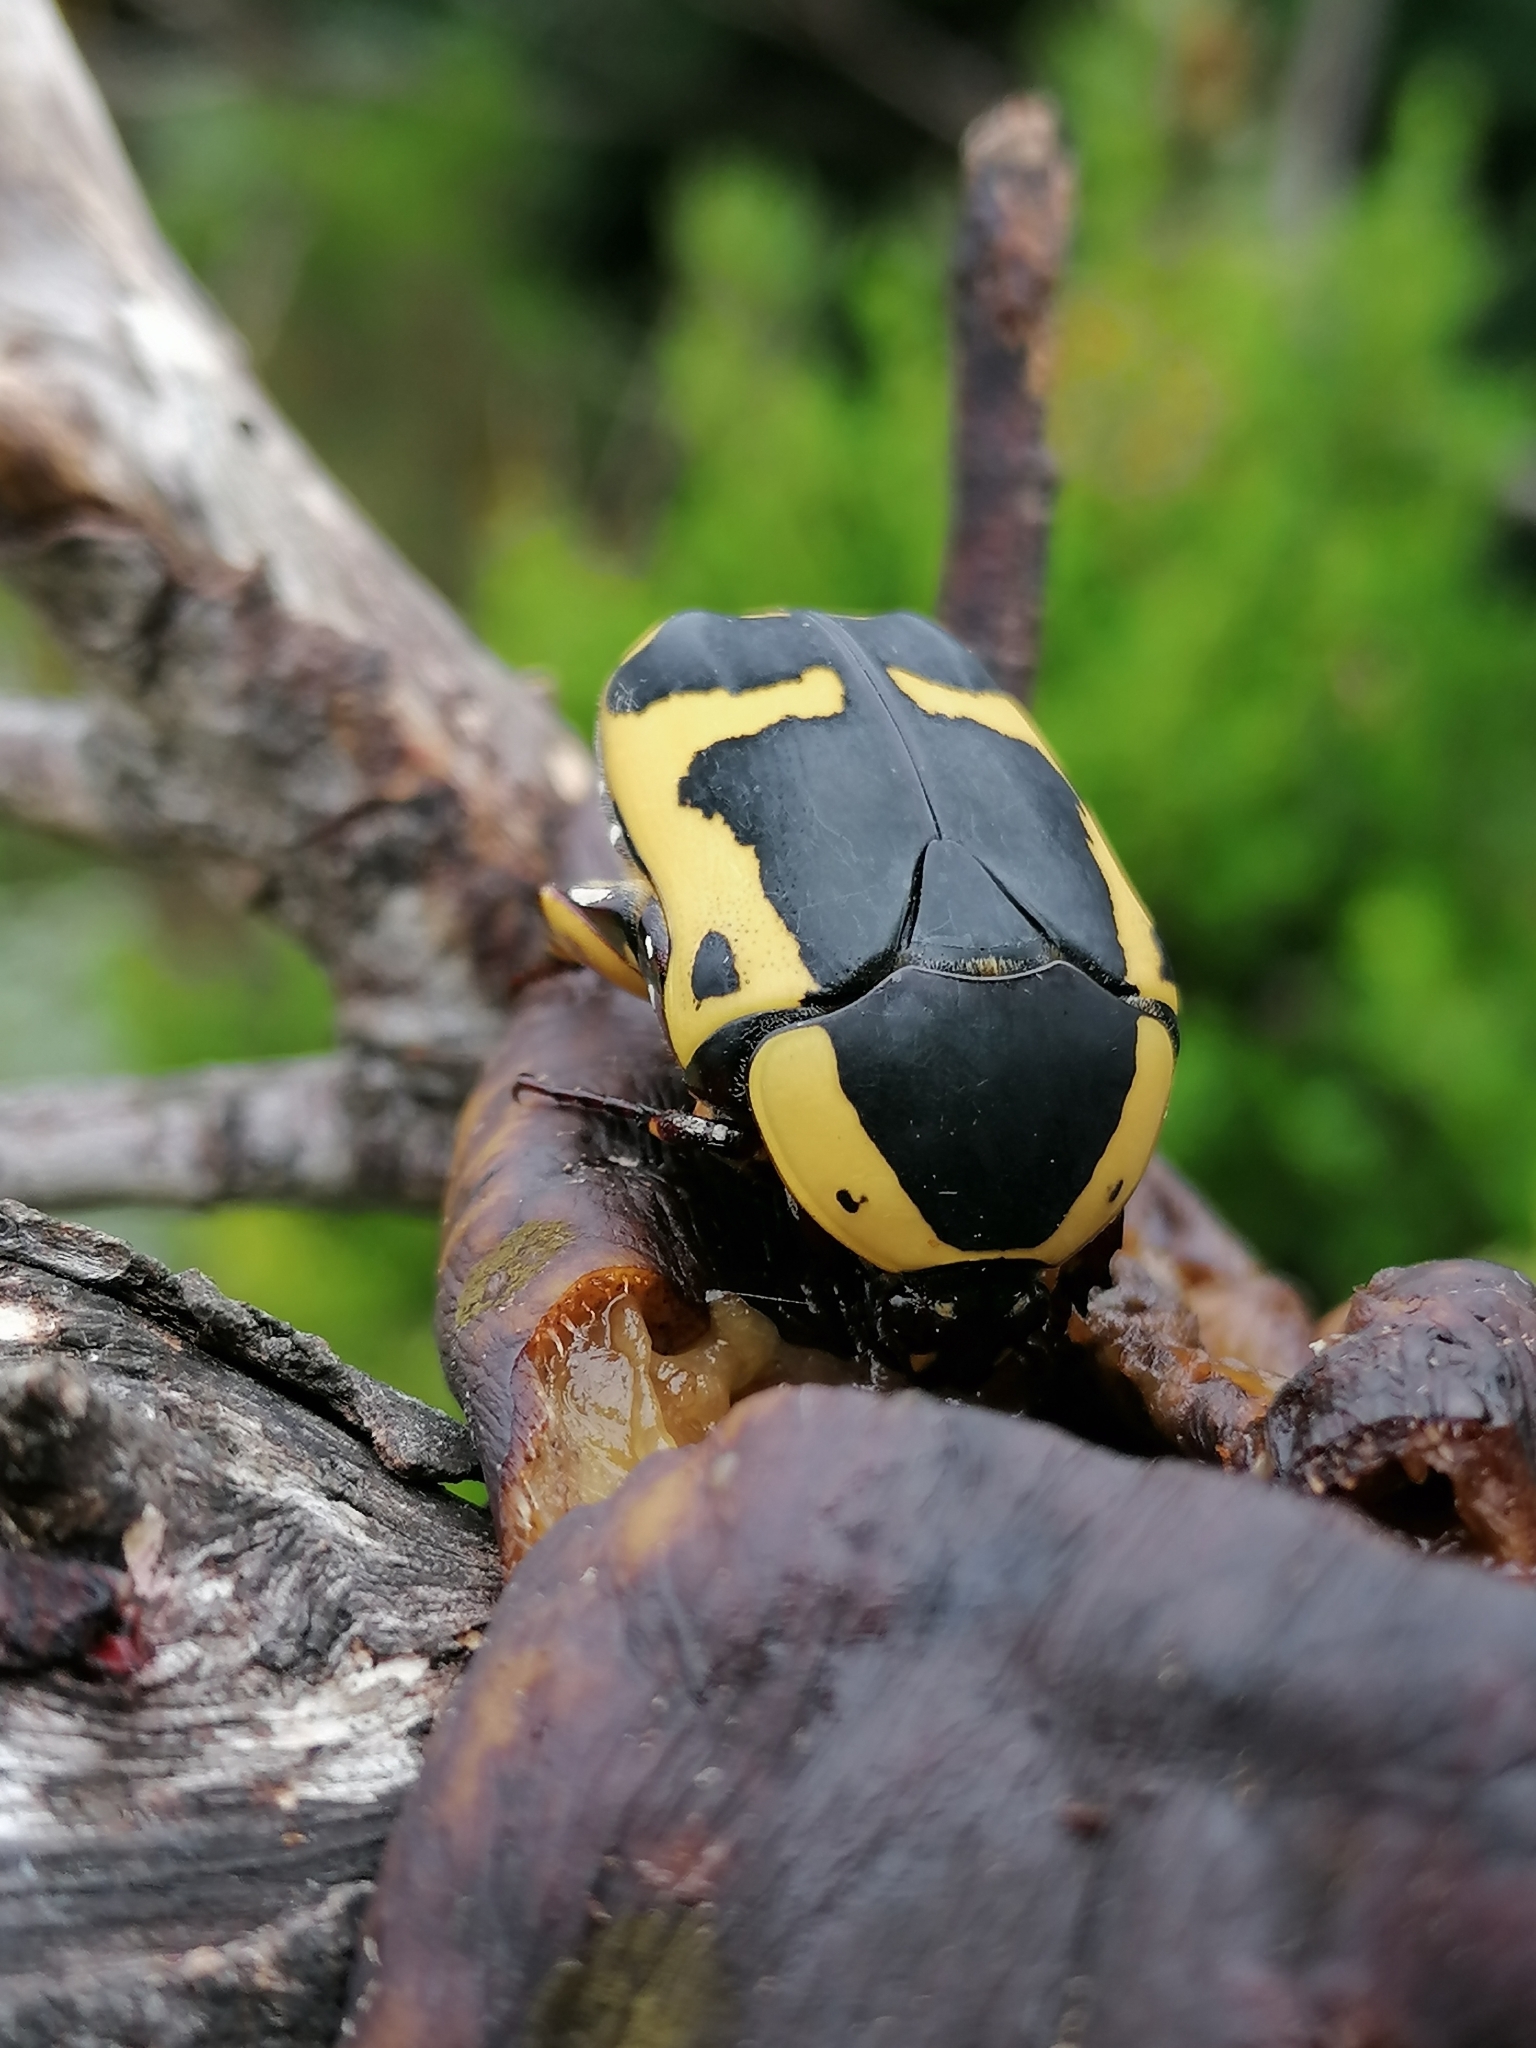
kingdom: Animalia
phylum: Arthropoda
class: Insecta
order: Coleoptera
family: Scarabaeidae
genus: Pachnoda
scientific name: Pachnoda sinuata
